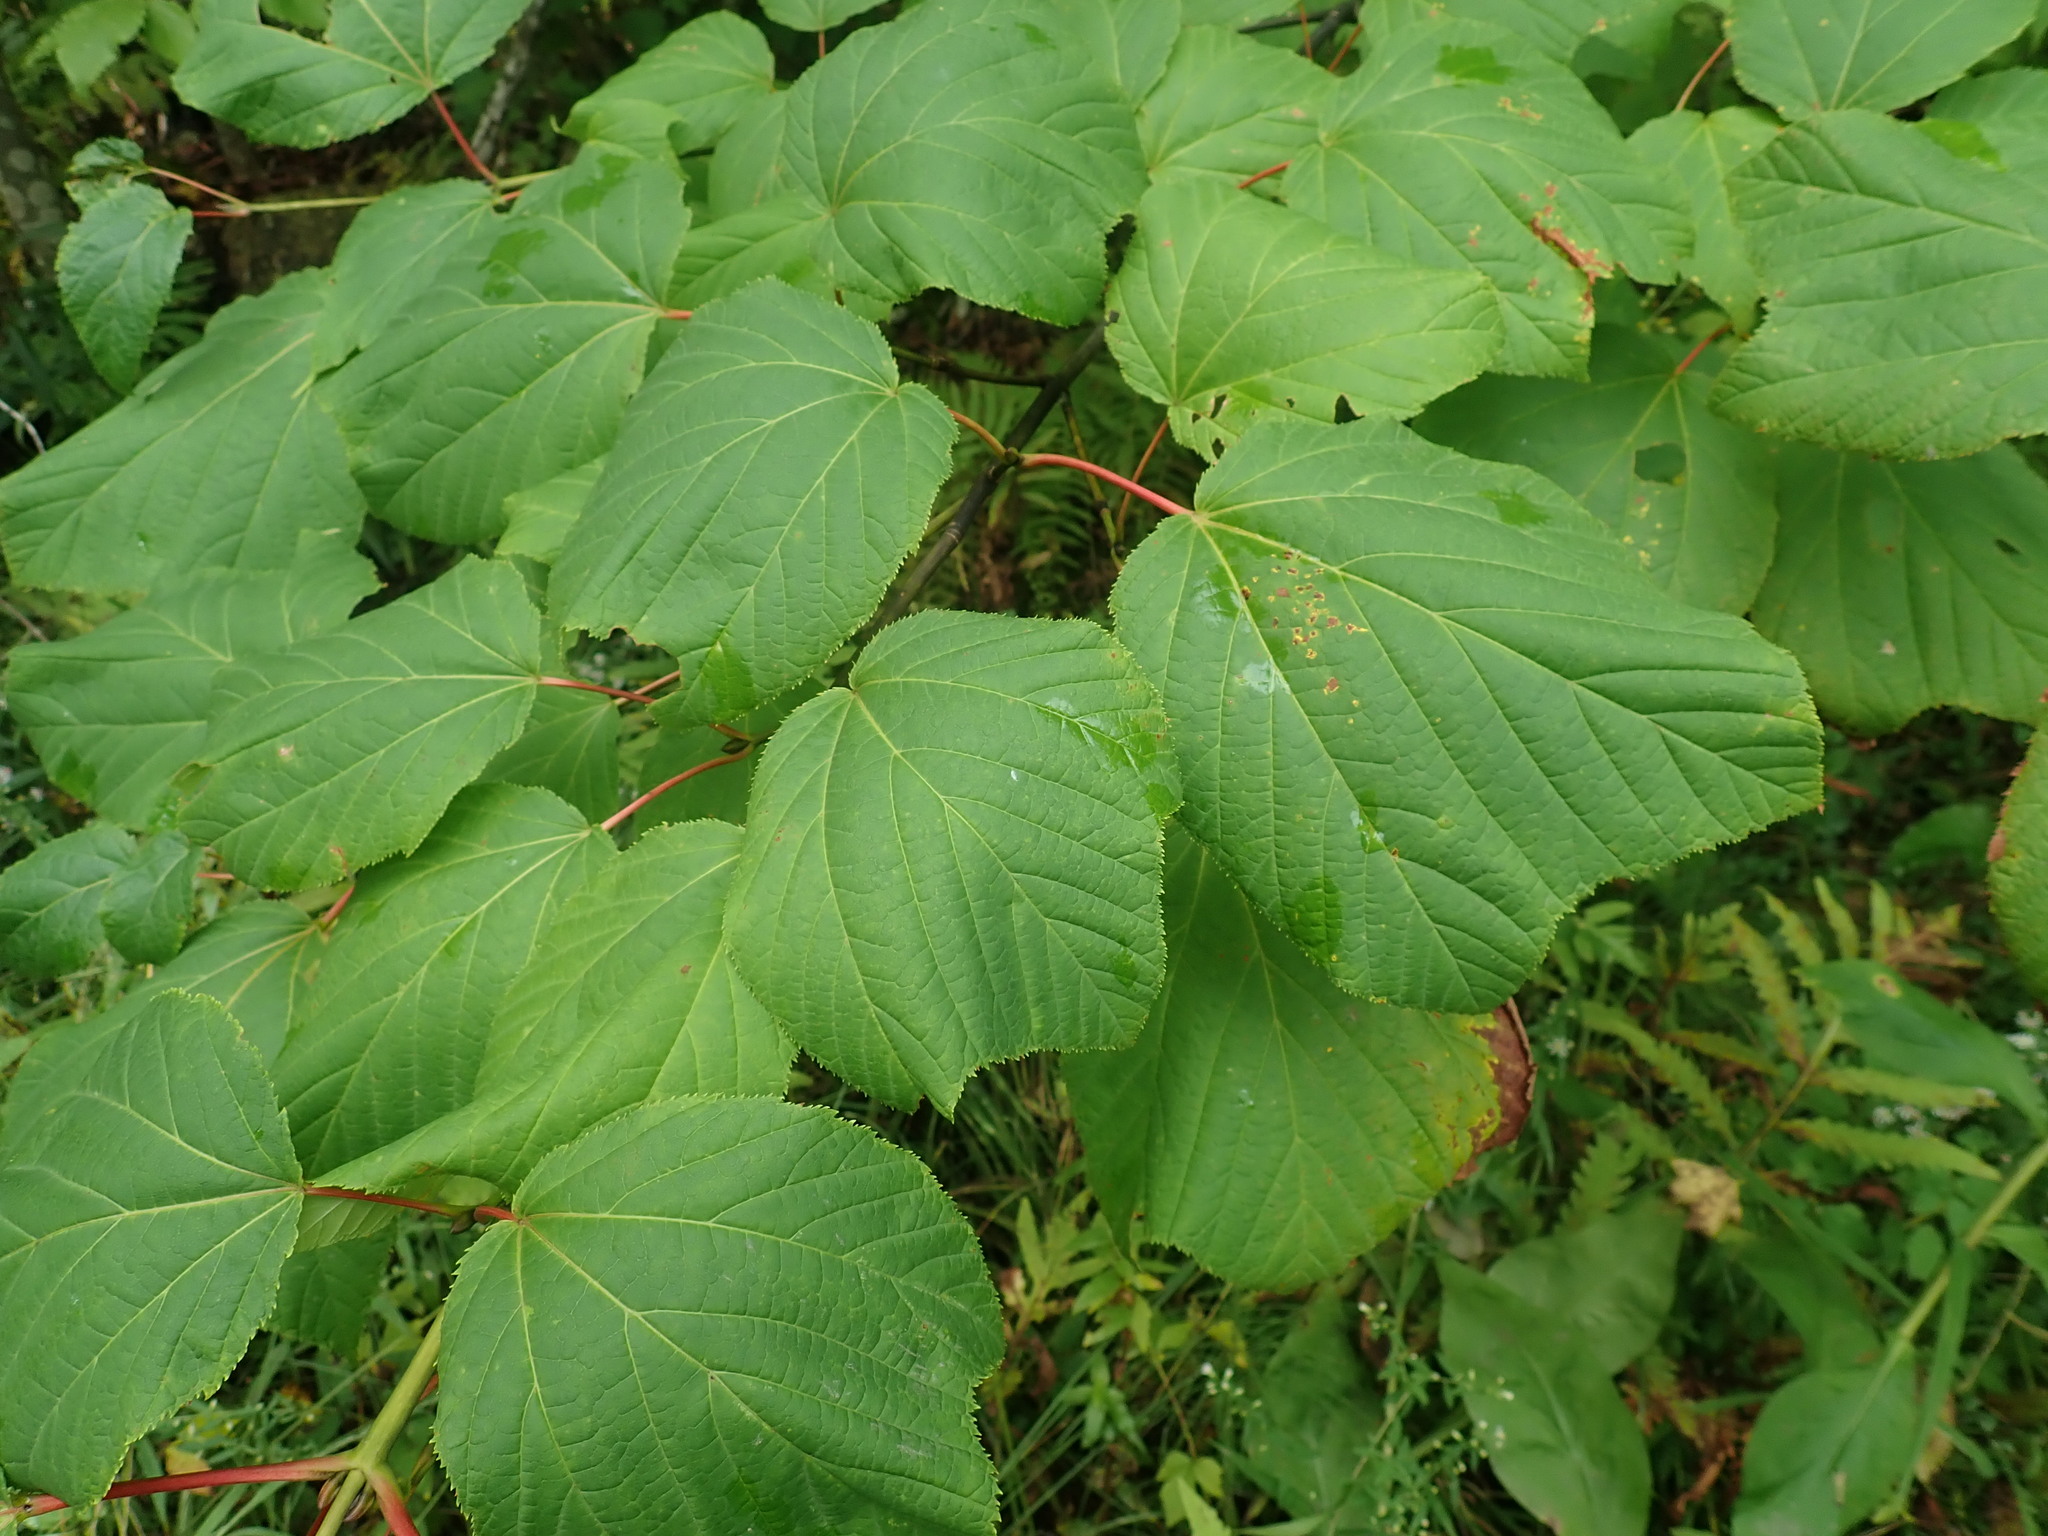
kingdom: Plantae
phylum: Tracheophyta
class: Magnoliopsida
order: Sapindales
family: Sapindaceae
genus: Acer
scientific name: Acer pensylvanicum
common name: Moosewood
